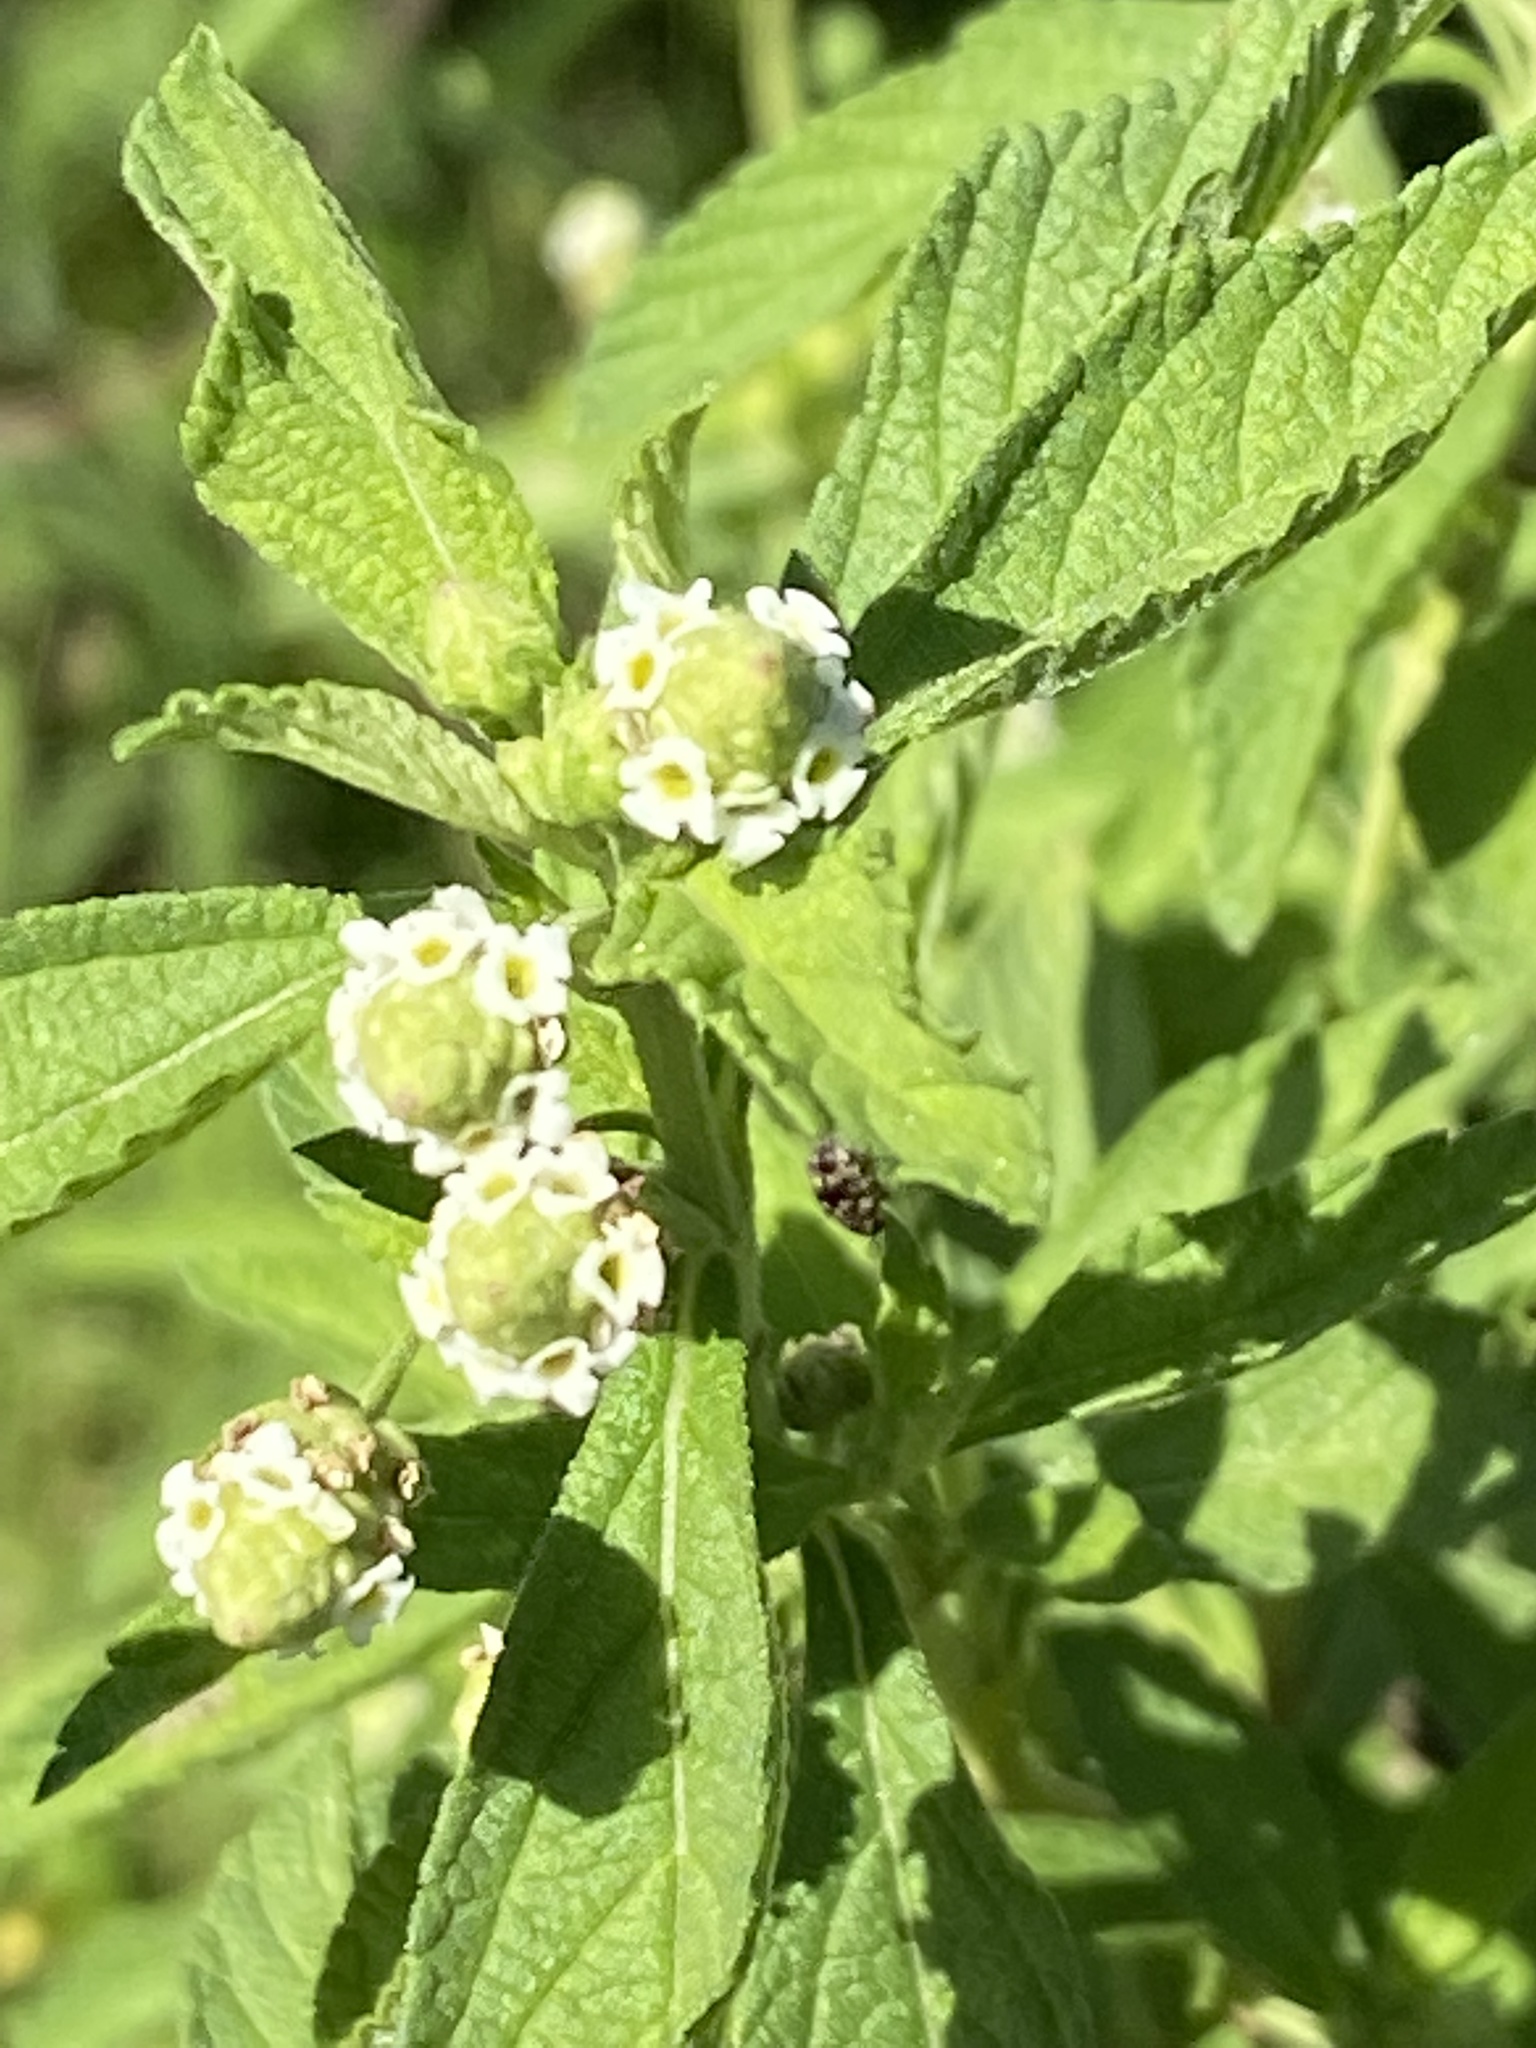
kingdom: Plantae
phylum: Tracheophyta
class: Magnoliopsida
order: Lamiales
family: Verbenaceae
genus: Lippia
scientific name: Lippia javanica
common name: Lemonbush
